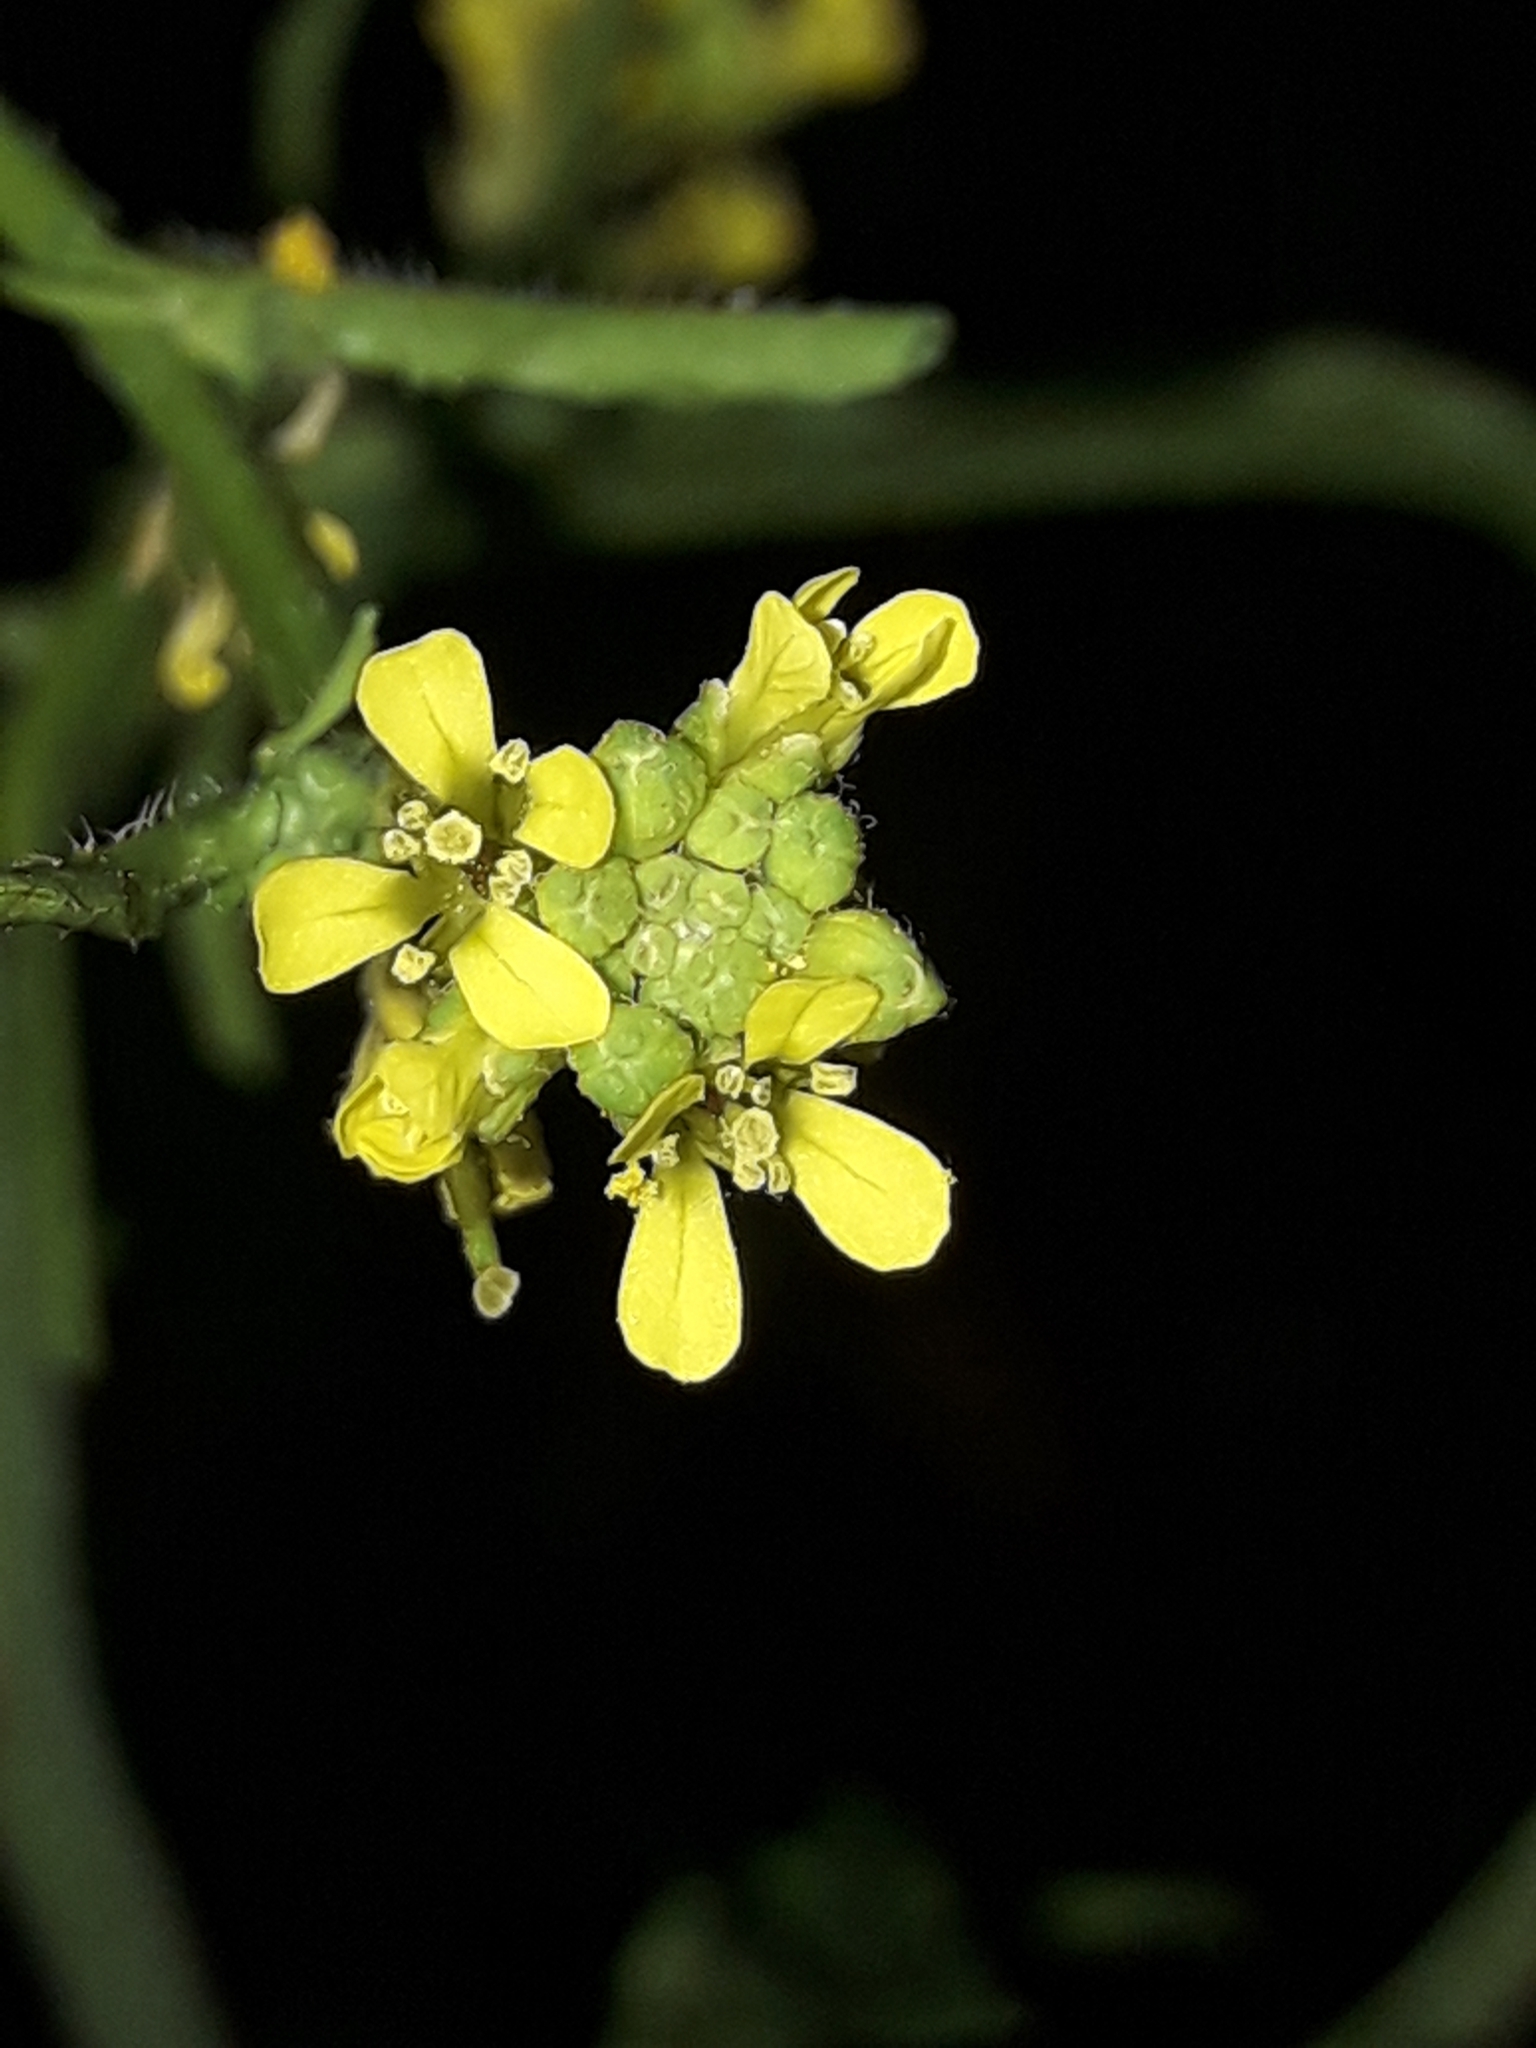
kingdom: Plantae
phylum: Tracheophyta
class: Magnoliopsida
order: Brassicales
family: Brassicaceae
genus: Sisymbrium
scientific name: Sisymbrium officinale
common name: Hedge mustard
